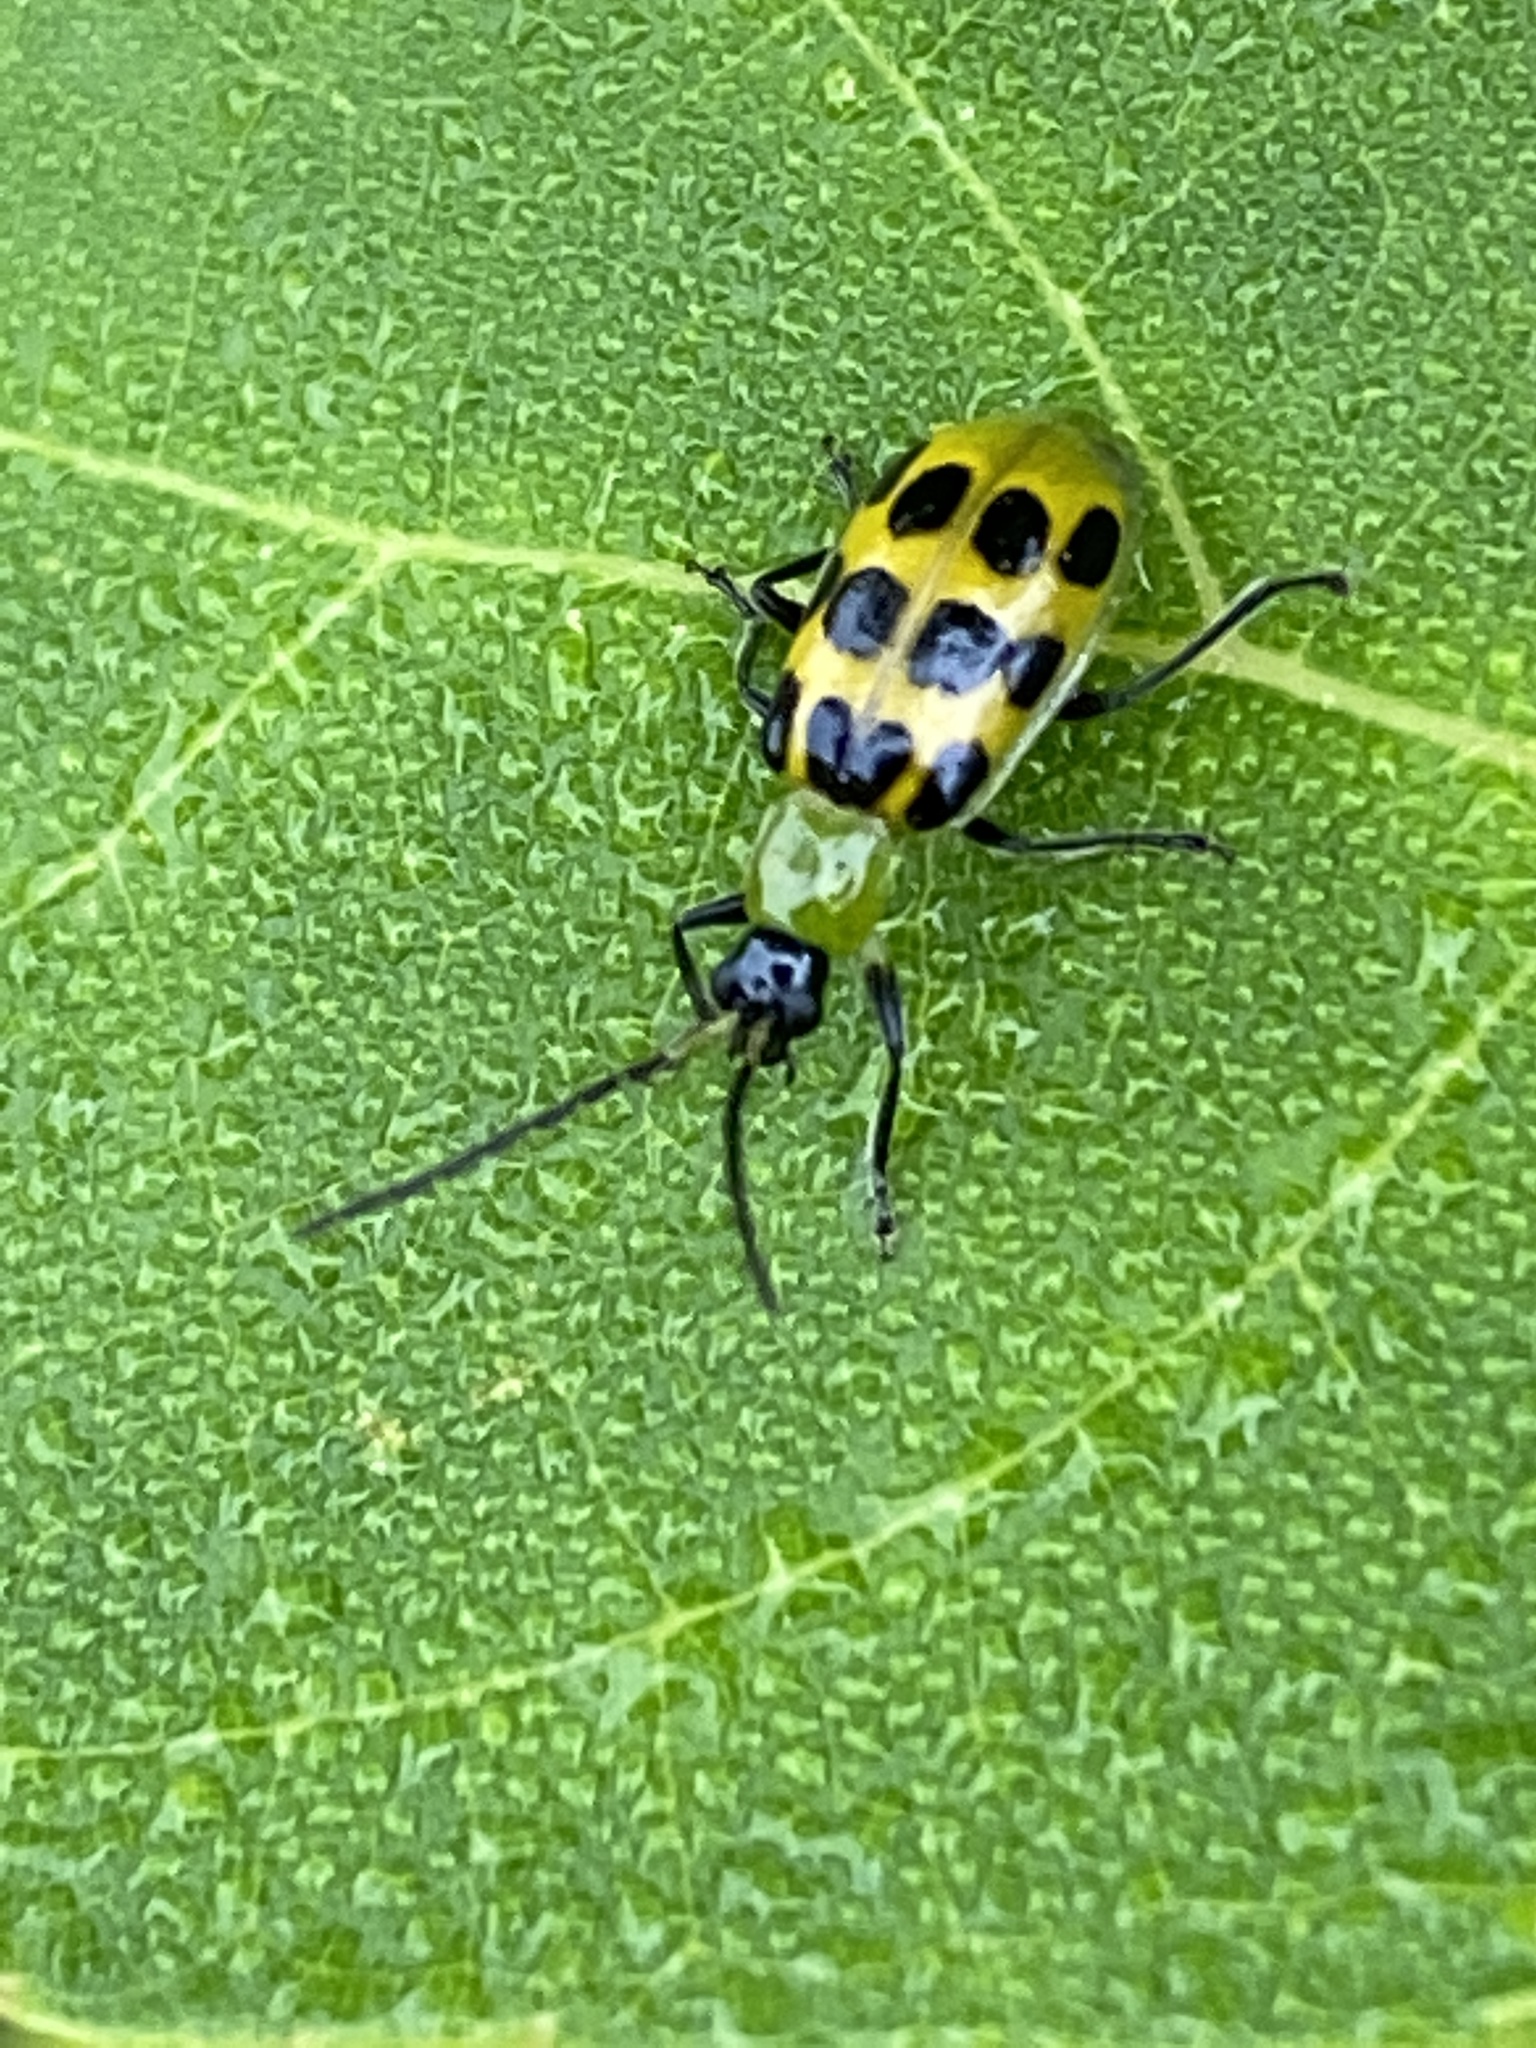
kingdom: Animalia
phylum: Arthropoda
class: Insecta
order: Coleoptera
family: Chrysomelidae
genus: Diabrotica
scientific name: Diabrotica undecimpunctata
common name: Spotted cucumber beetle
